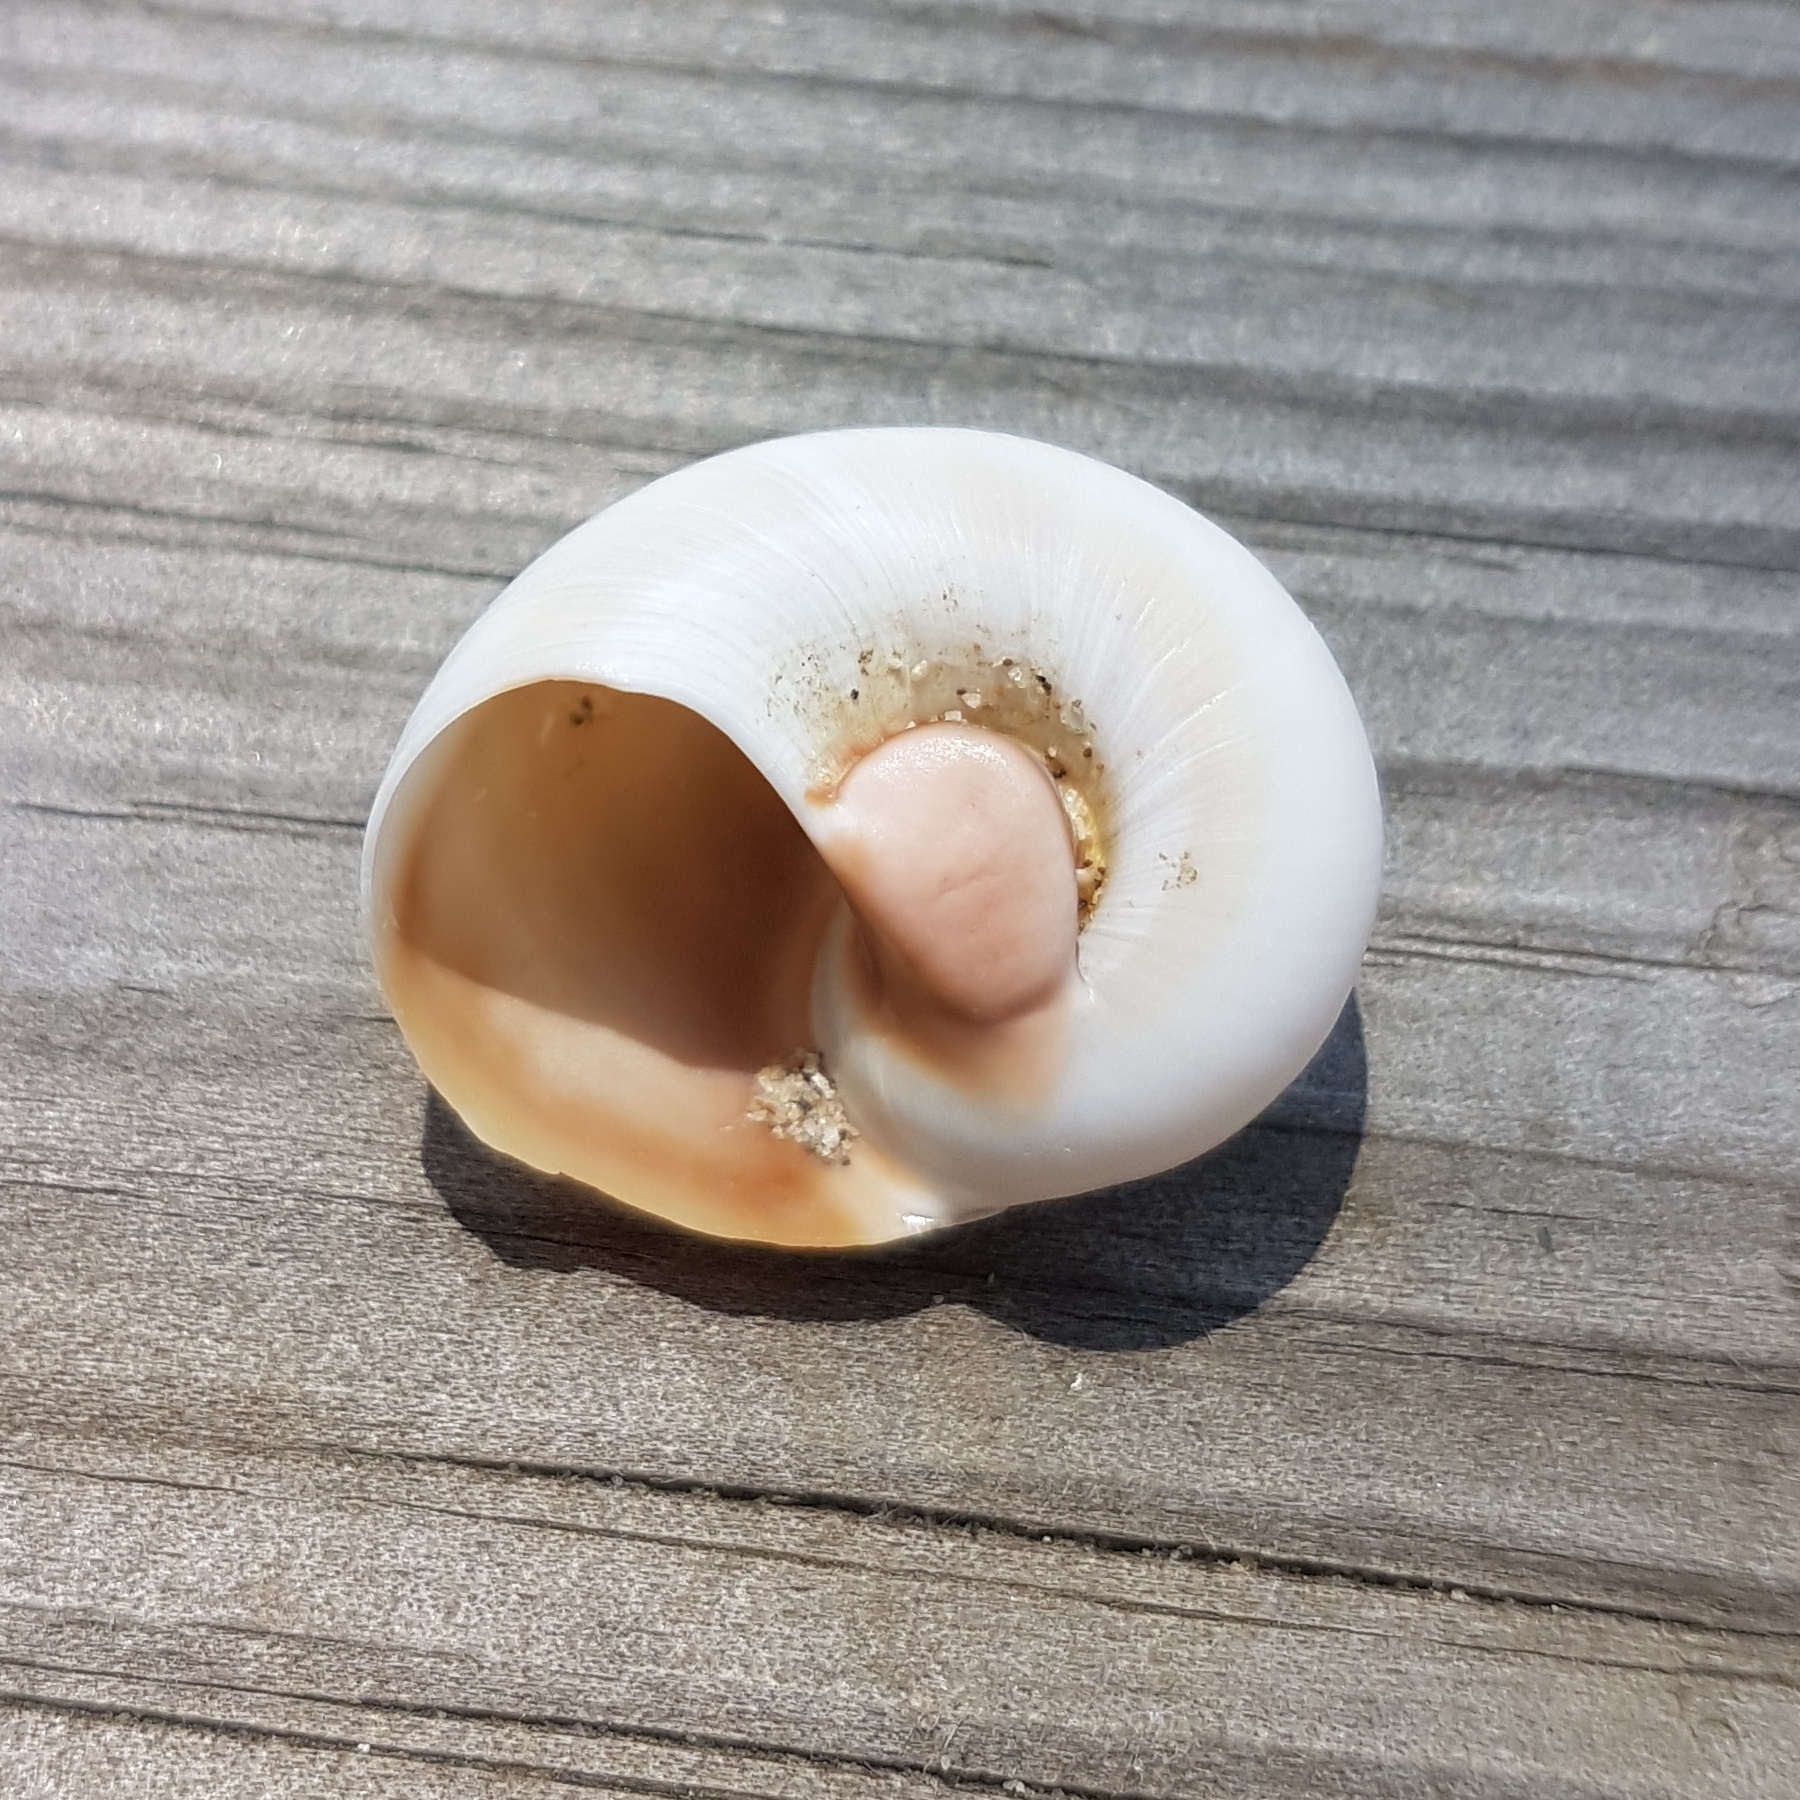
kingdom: Animalia
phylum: Mollusca
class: Gastropoda
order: Littorinimorpha
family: Naticidae
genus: Neverita
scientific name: Neverita josephinia
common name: Josephine's moonsnail
